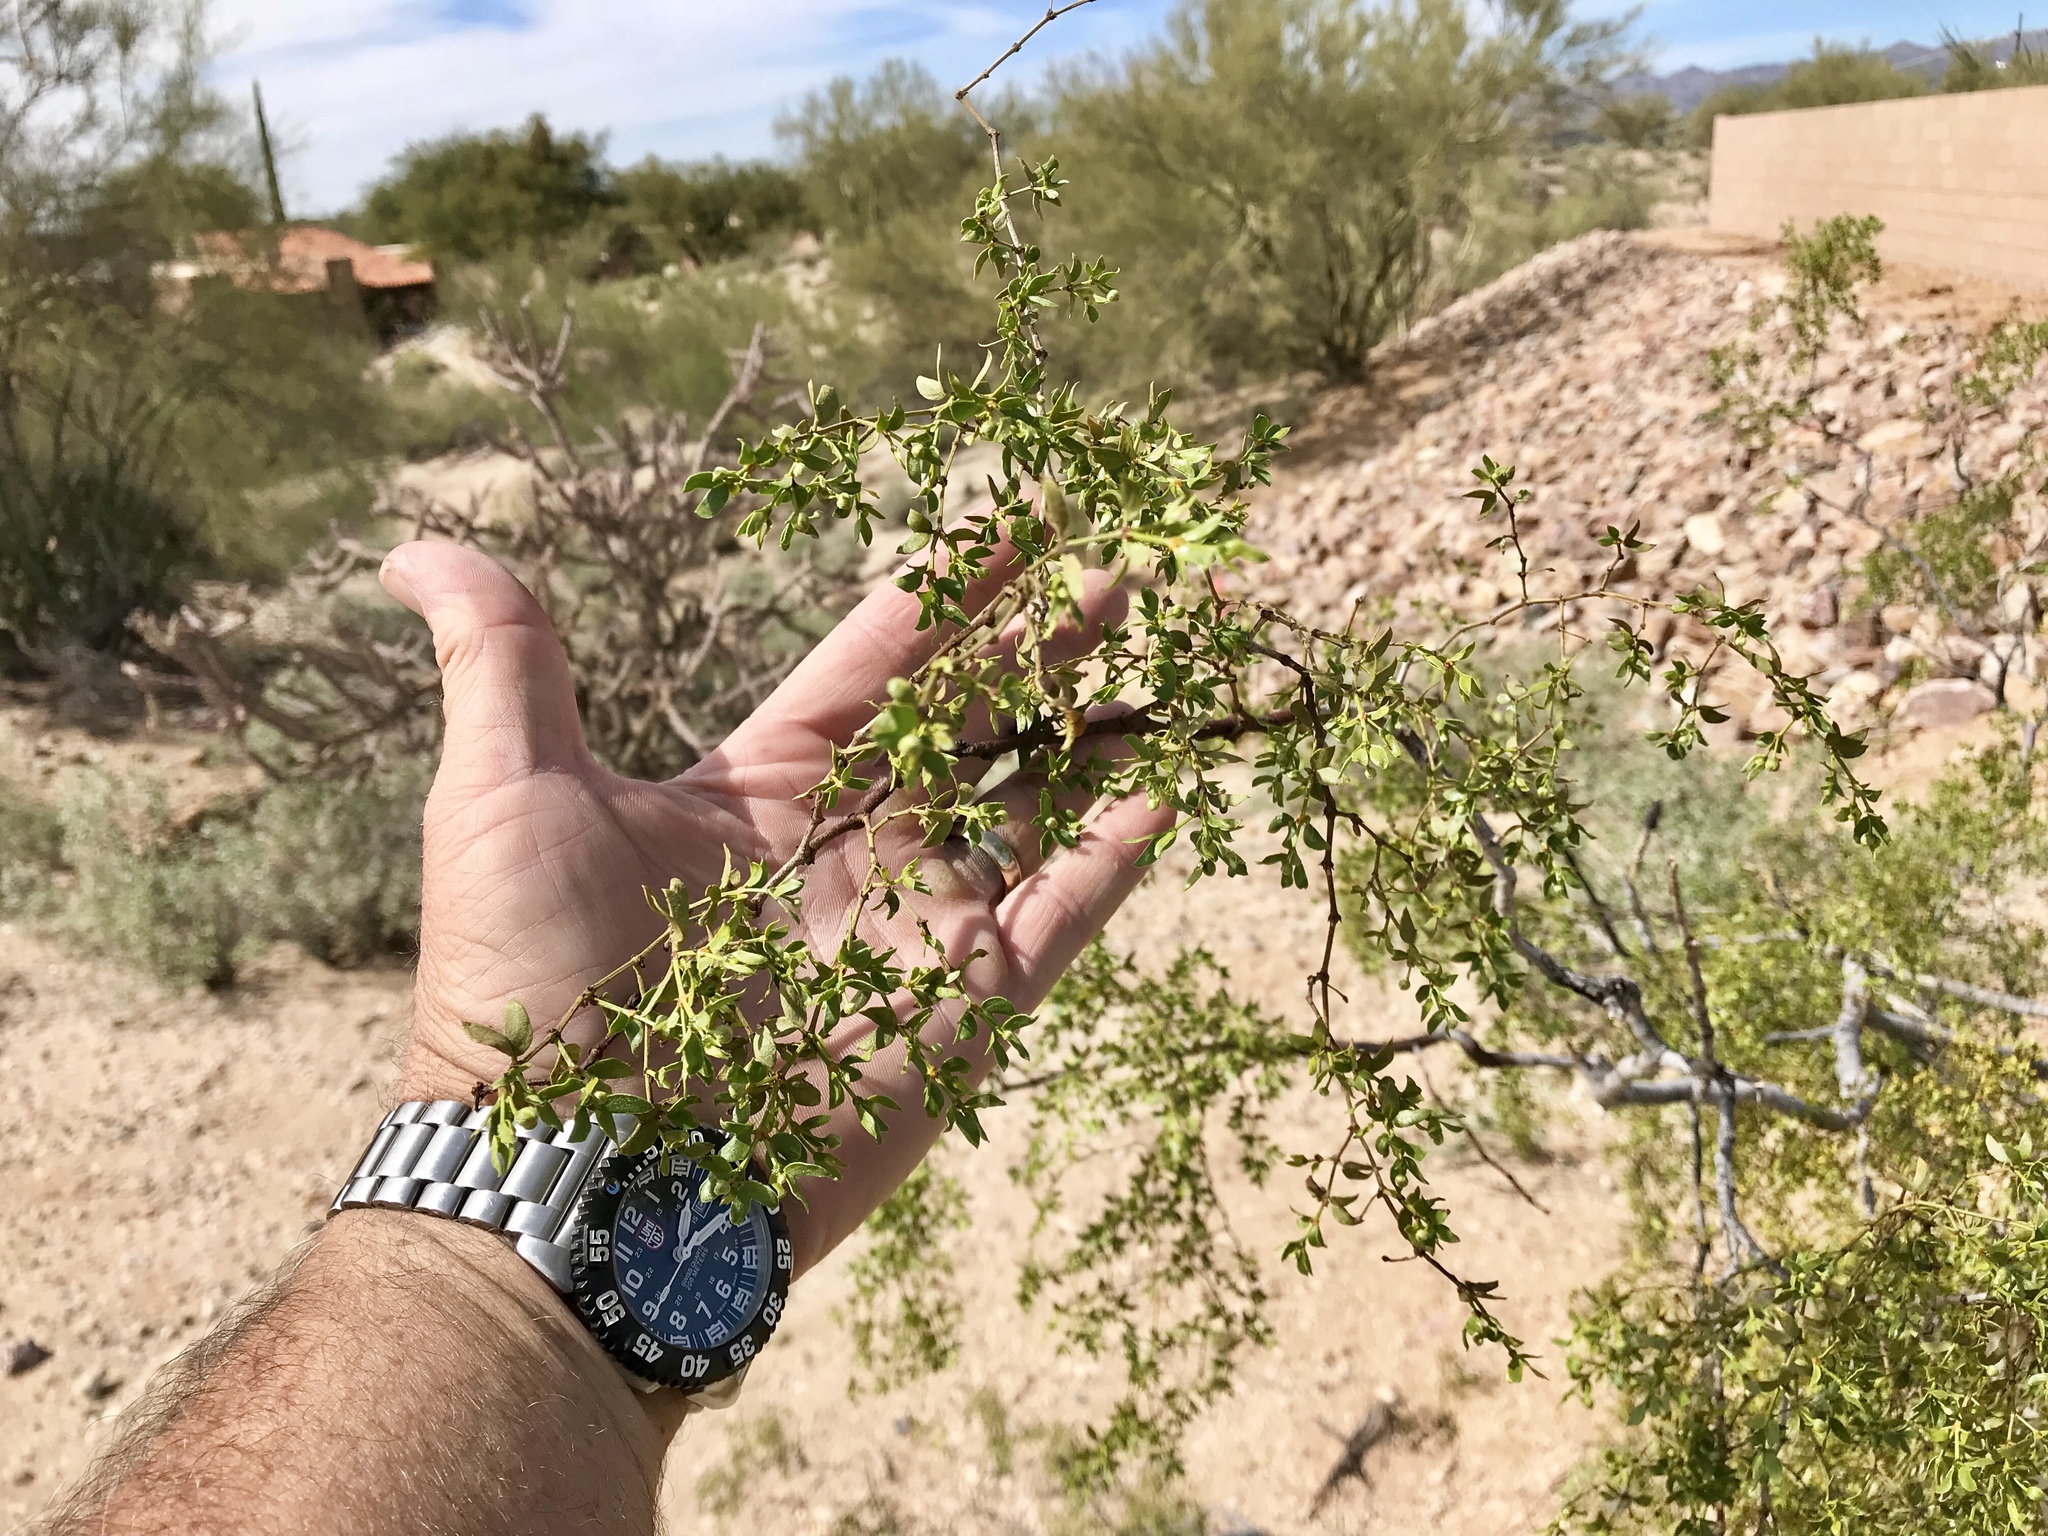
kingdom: Plantae
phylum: Tracheophyta
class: Magnoliopsida
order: Zygophyllales
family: Zygophyllaceae
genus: Larrea
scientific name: Larrea tridentata
